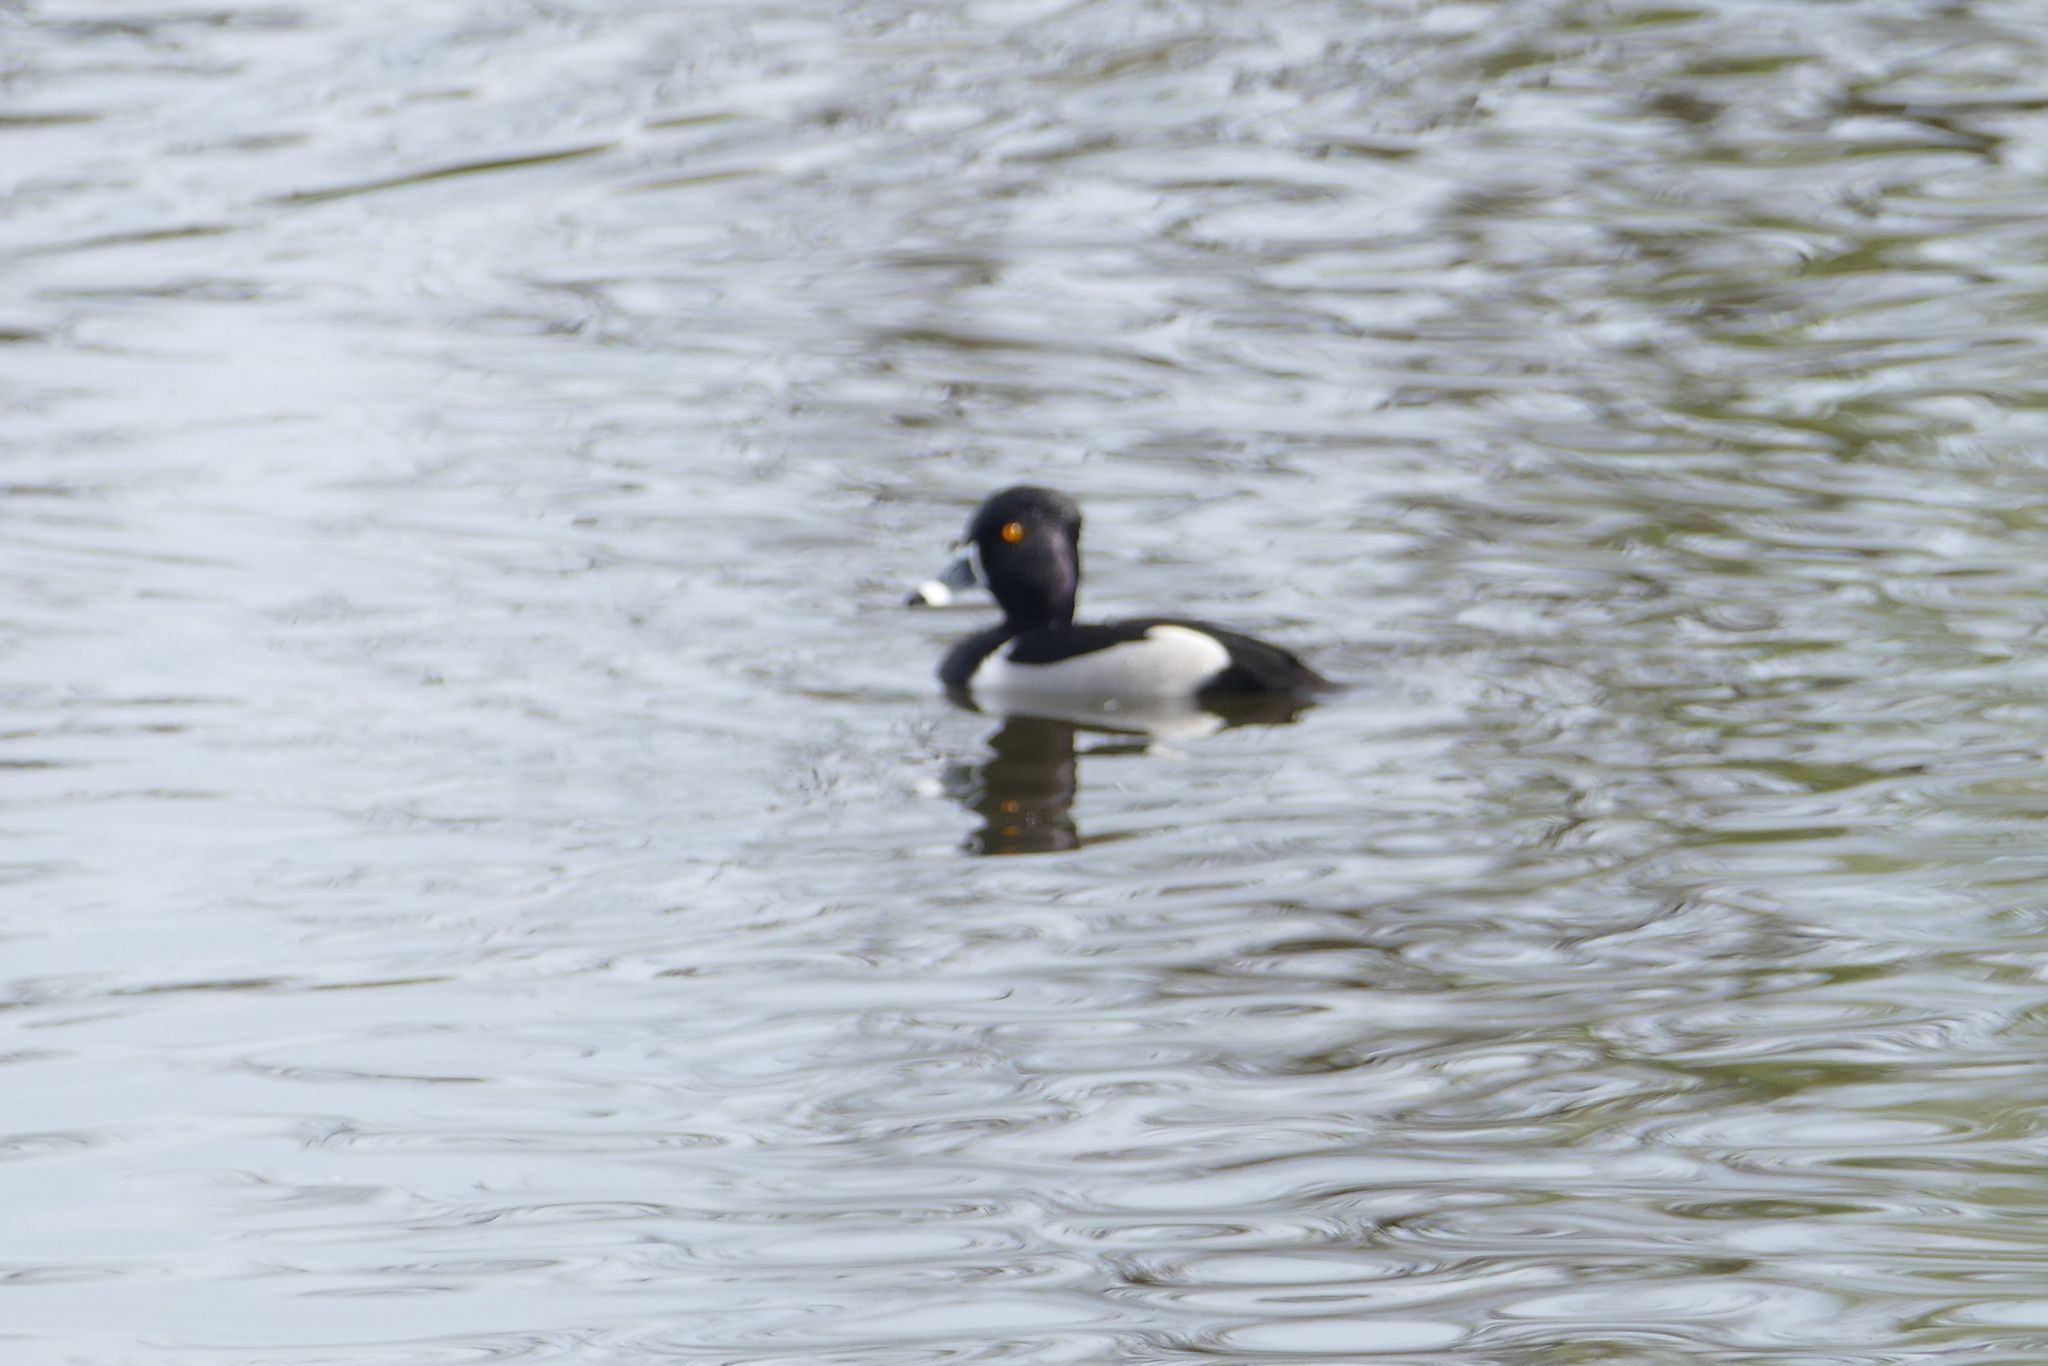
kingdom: Animalia
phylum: Chordata
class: Aves
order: Anseriformes
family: Anatidae
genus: Aythya
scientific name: Aythya collaris
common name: Ring-necked duck
